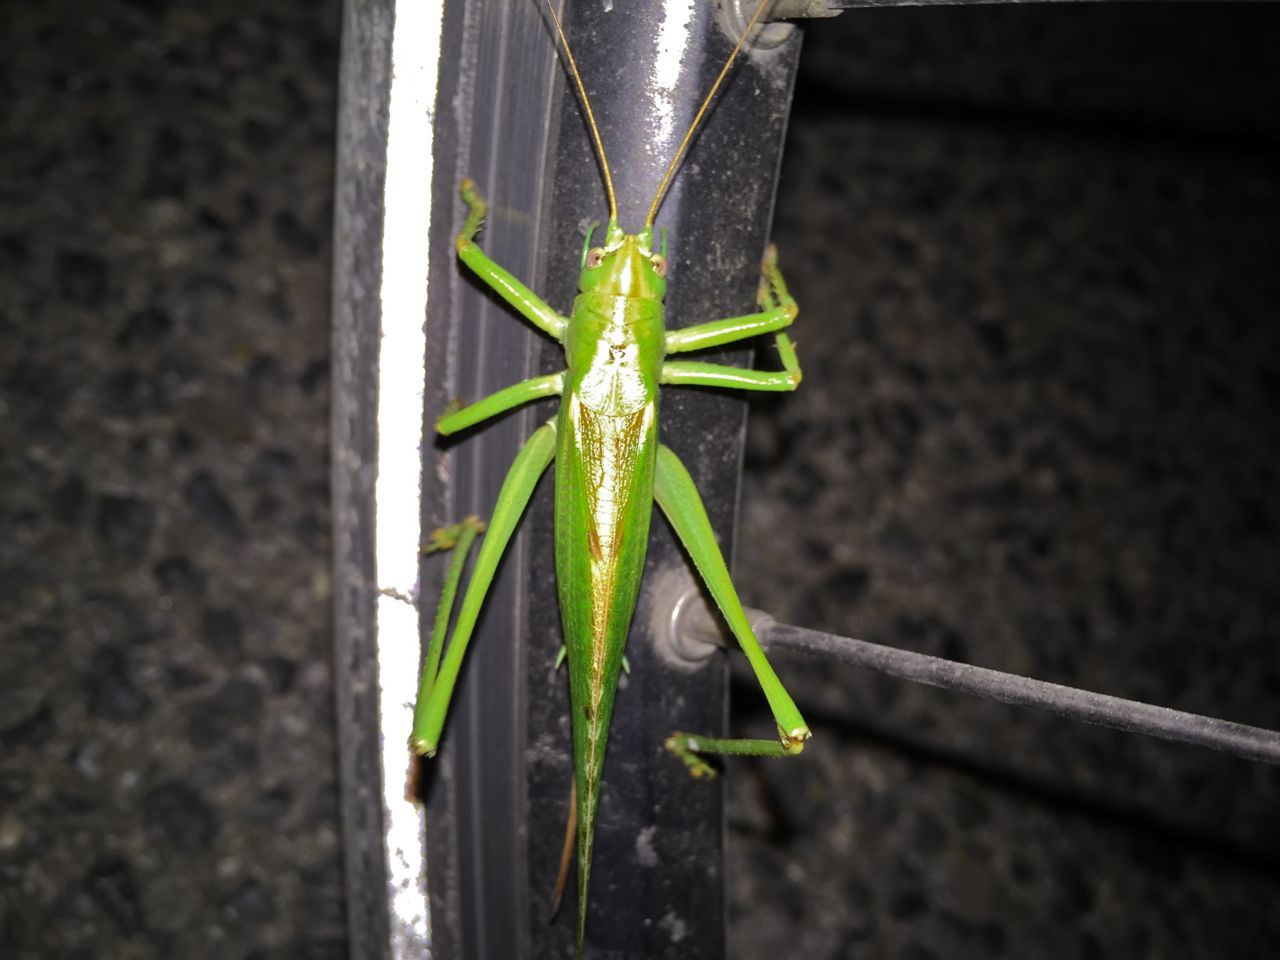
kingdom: Animalia
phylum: Arthropoda
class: Insecta
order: Orthoptera
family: Tettigoniidae
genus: Tettigonia
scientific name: Tettigonia viridissima
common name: Great green bush-cricket
